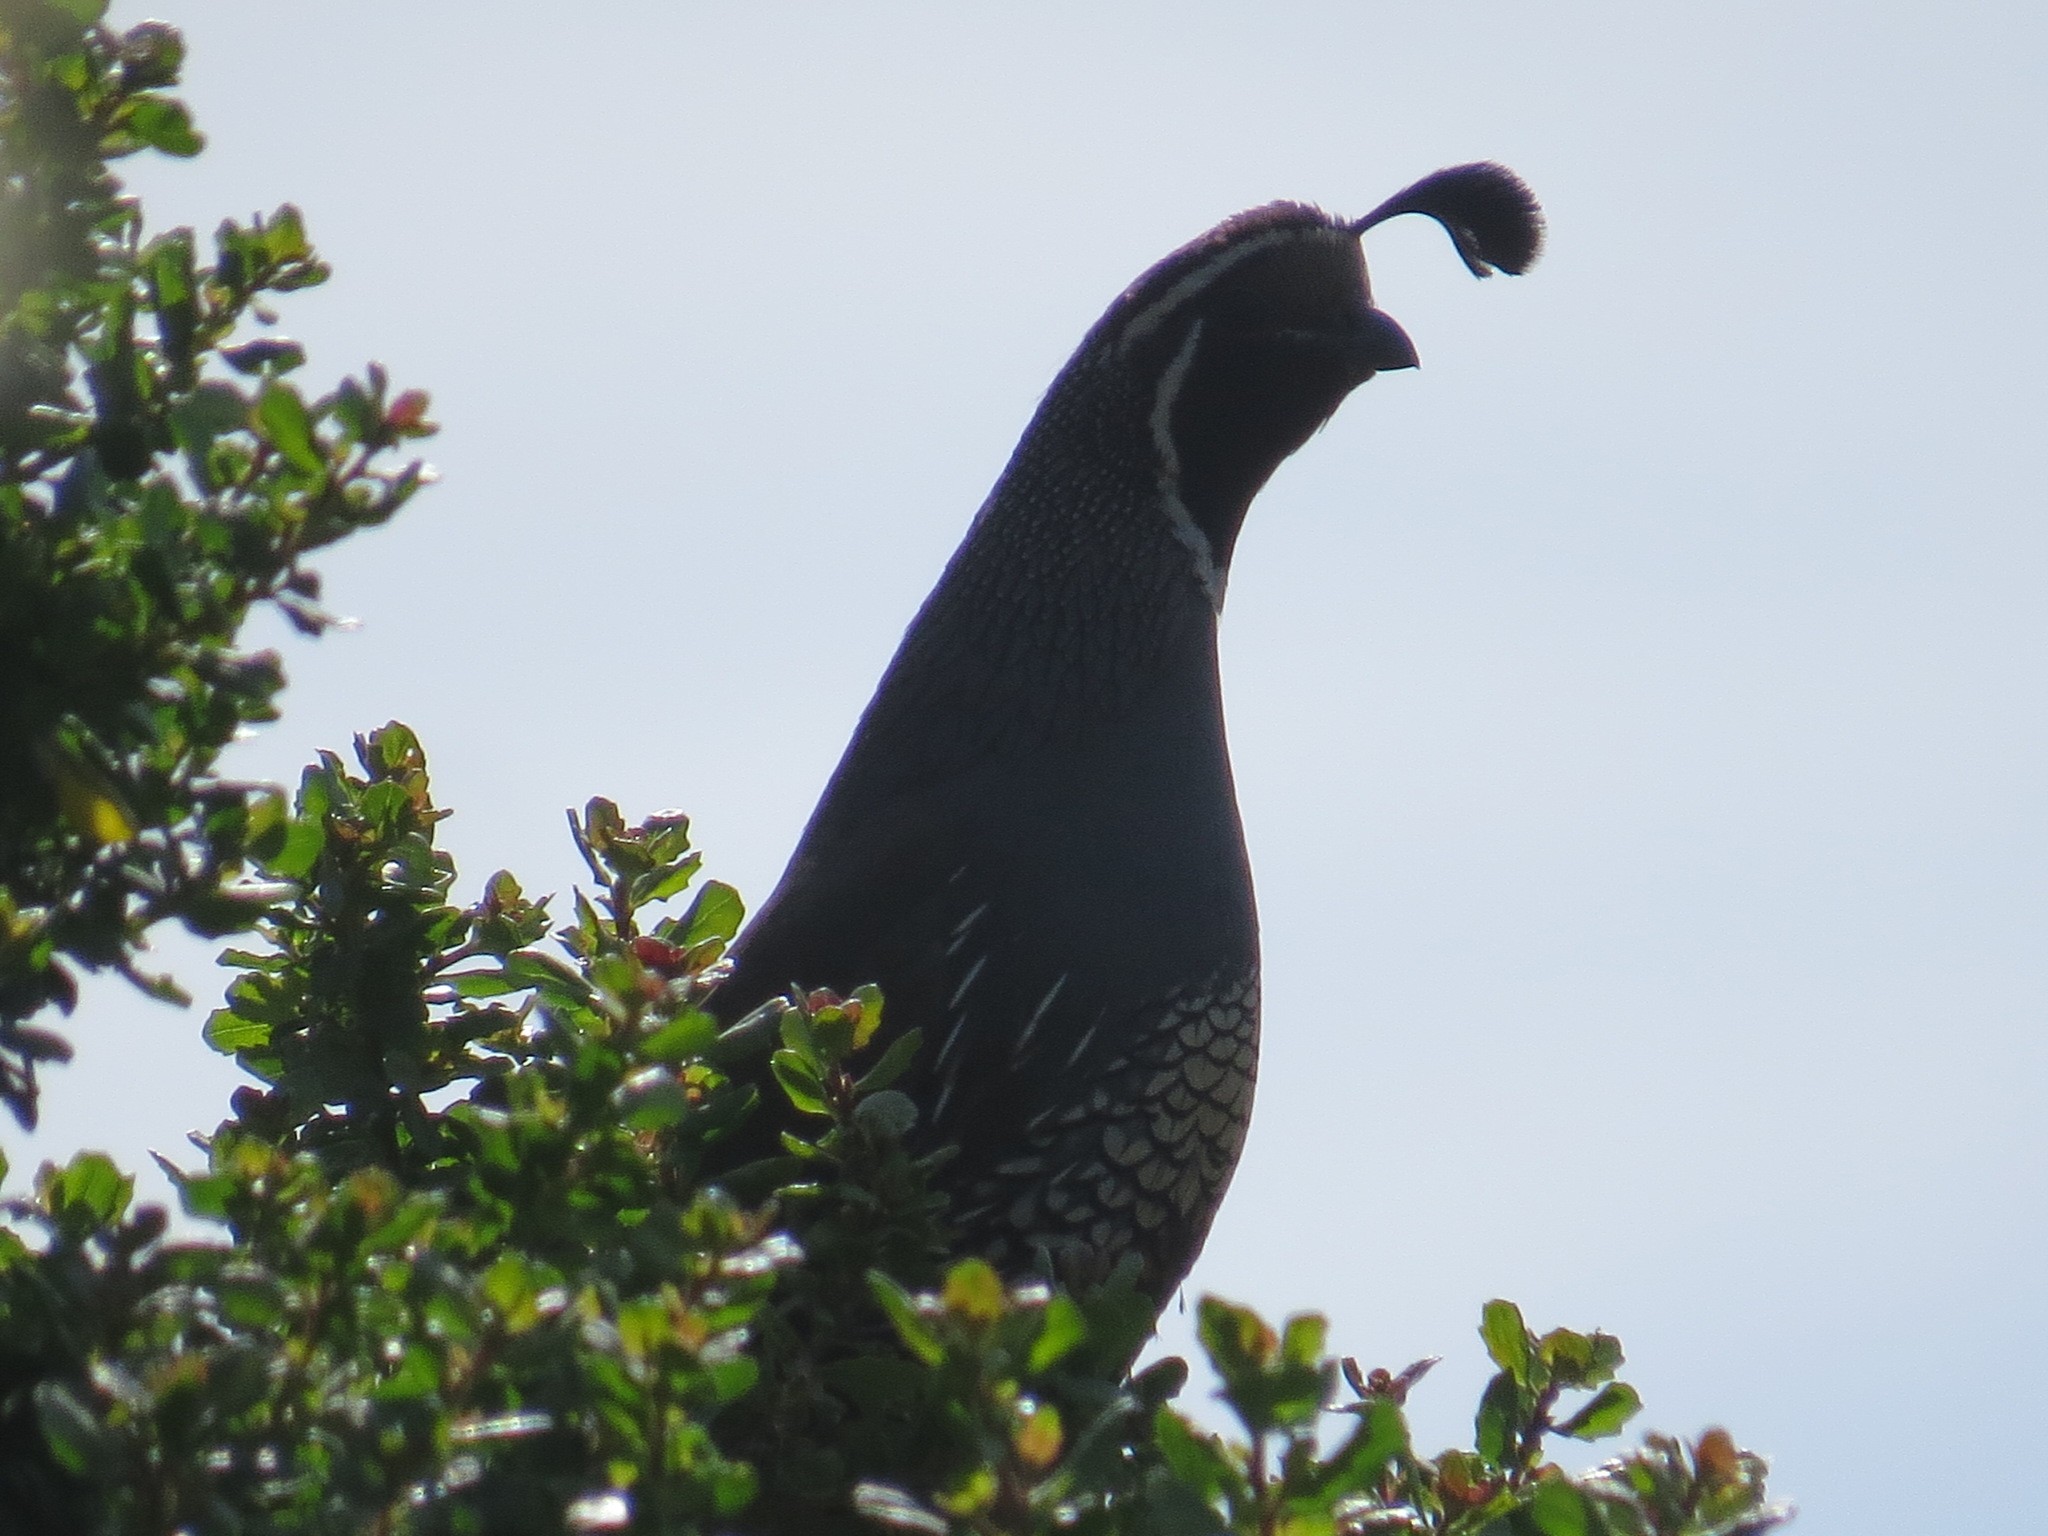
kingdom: Animalia
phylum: Chordata
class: Aves
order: Galliformes
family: Odontophoridae
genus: Callipepla
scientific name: Callipepla californica
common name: California quail
